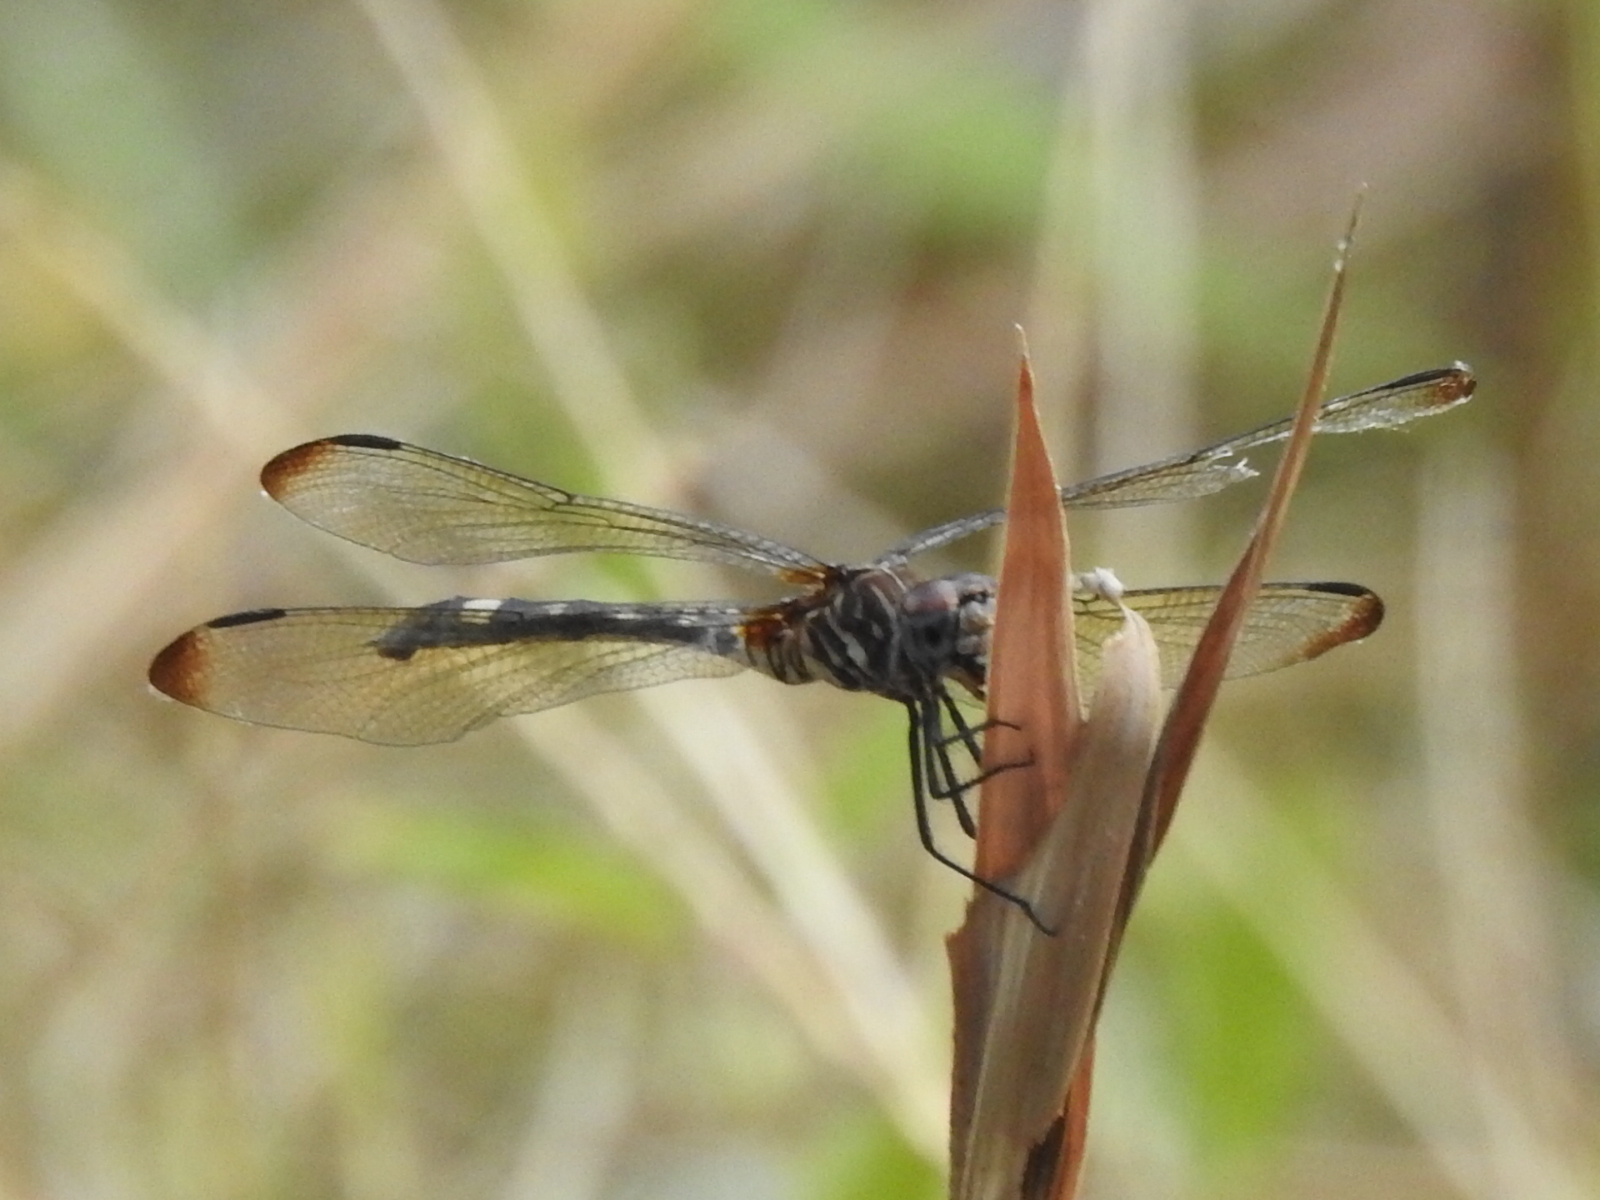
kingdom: Animalia
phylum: Arthropoda
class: Insecta
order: Odonata
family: Libellulidae
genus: Dythemis
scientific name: Dythemis velox
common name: Swift setwing
